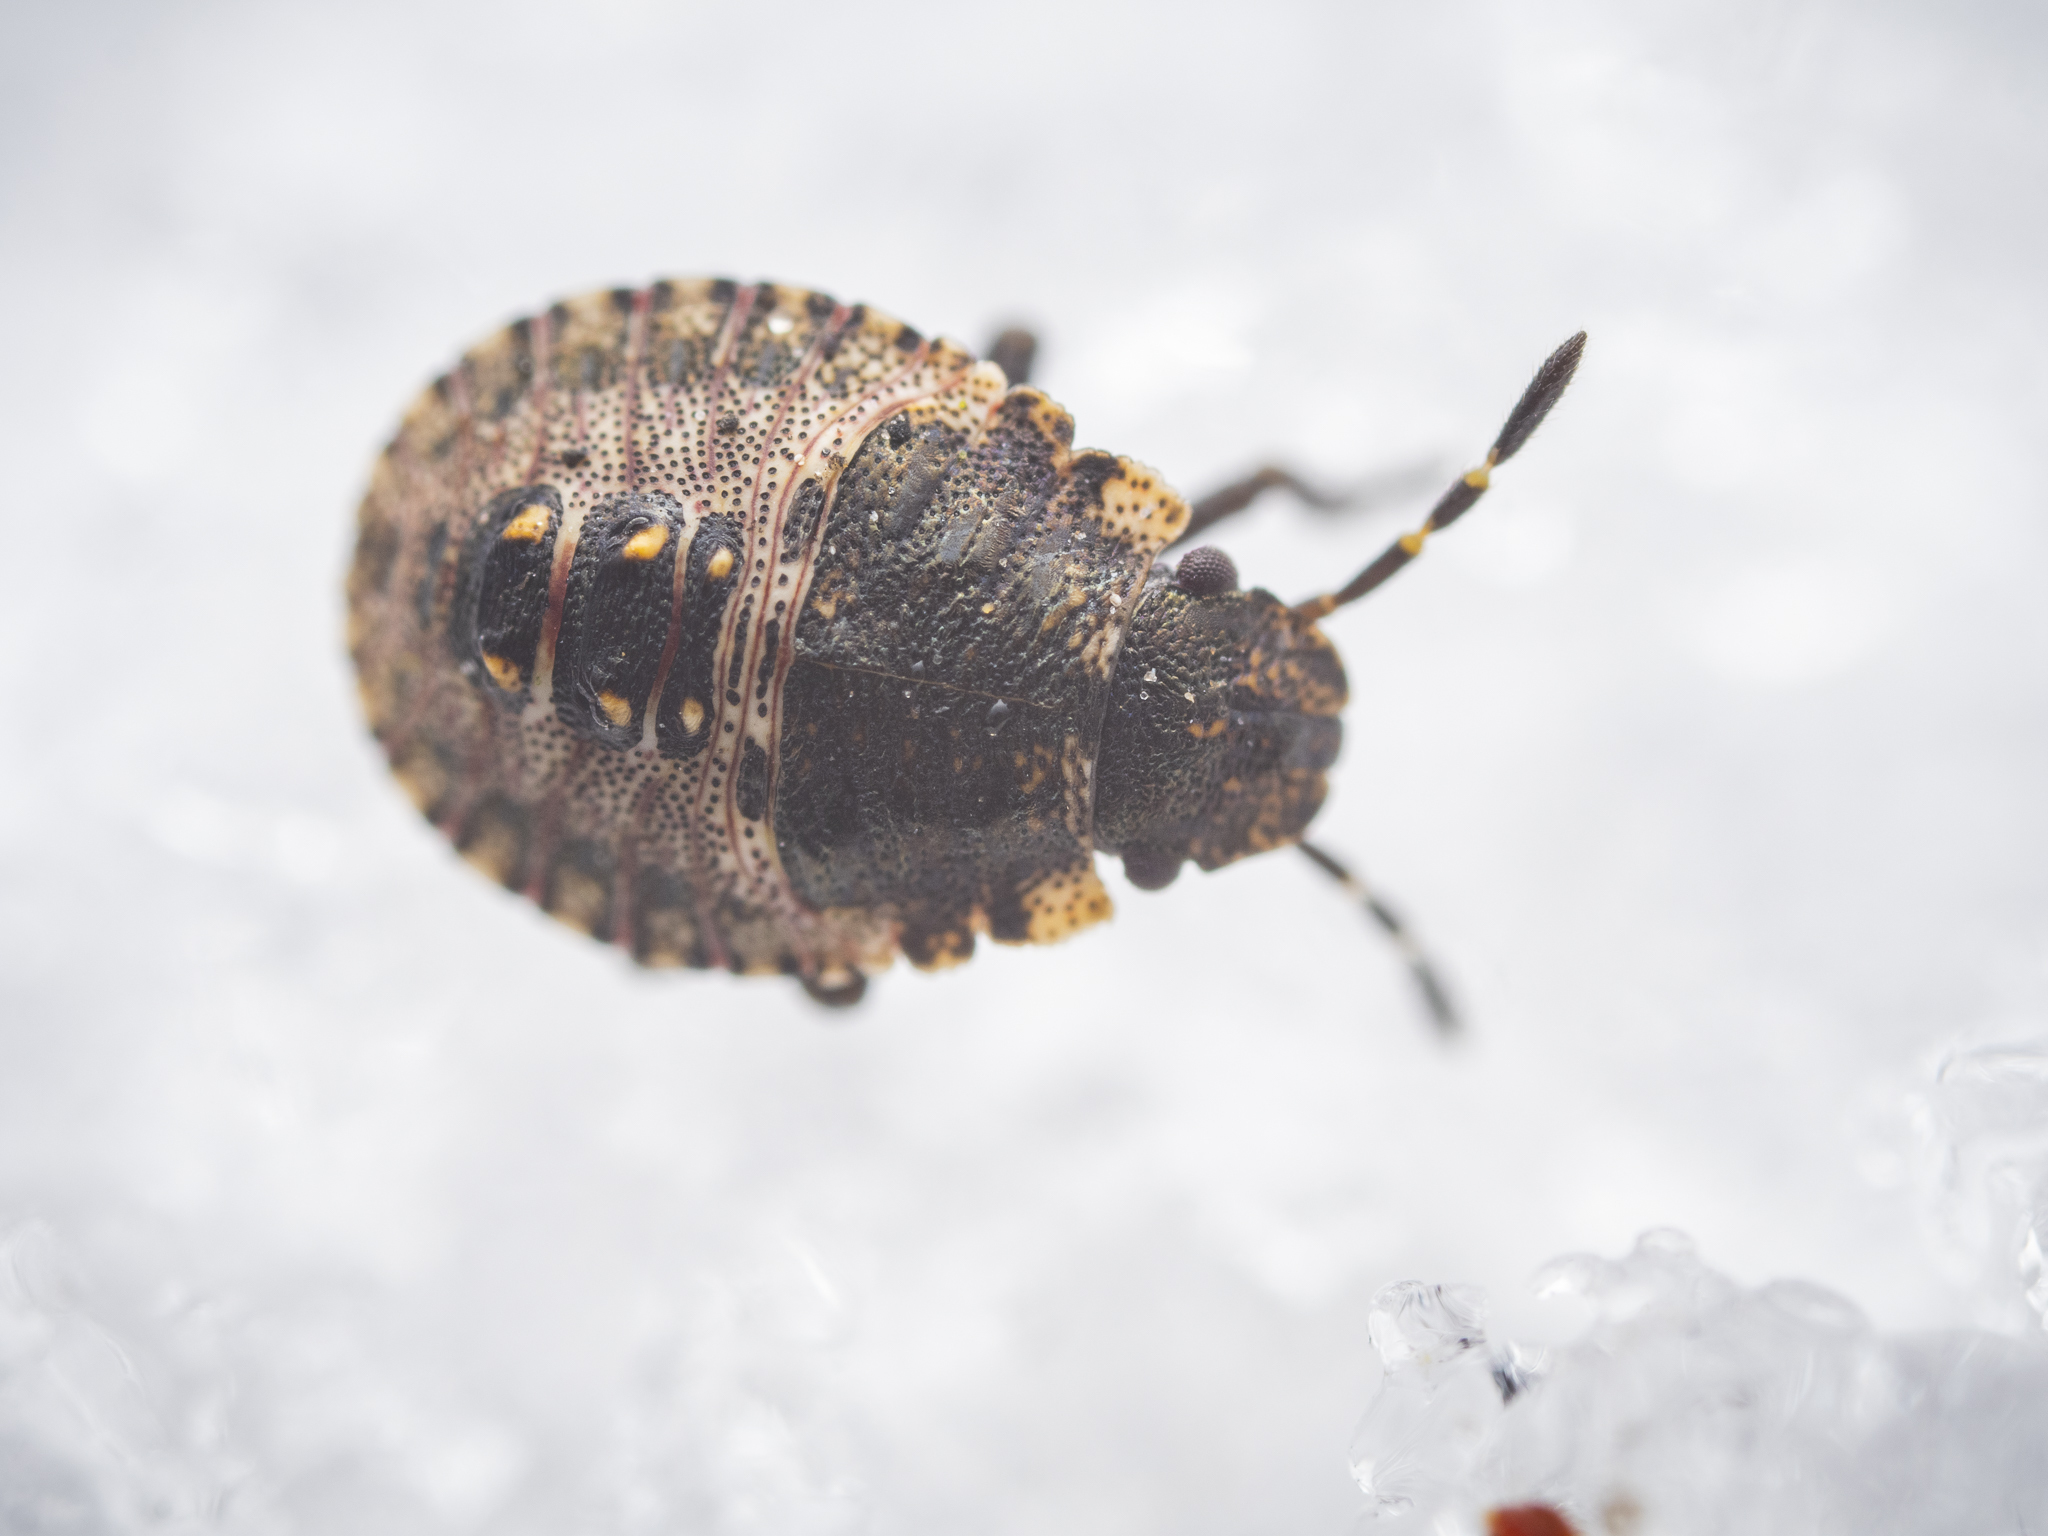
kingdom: Animalia
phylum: Arthropoda
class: Insecta
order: Hemiptera
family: Pentatomidae
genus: Pentatoma
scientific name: Pentatoma rufipes
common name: Forest bug
